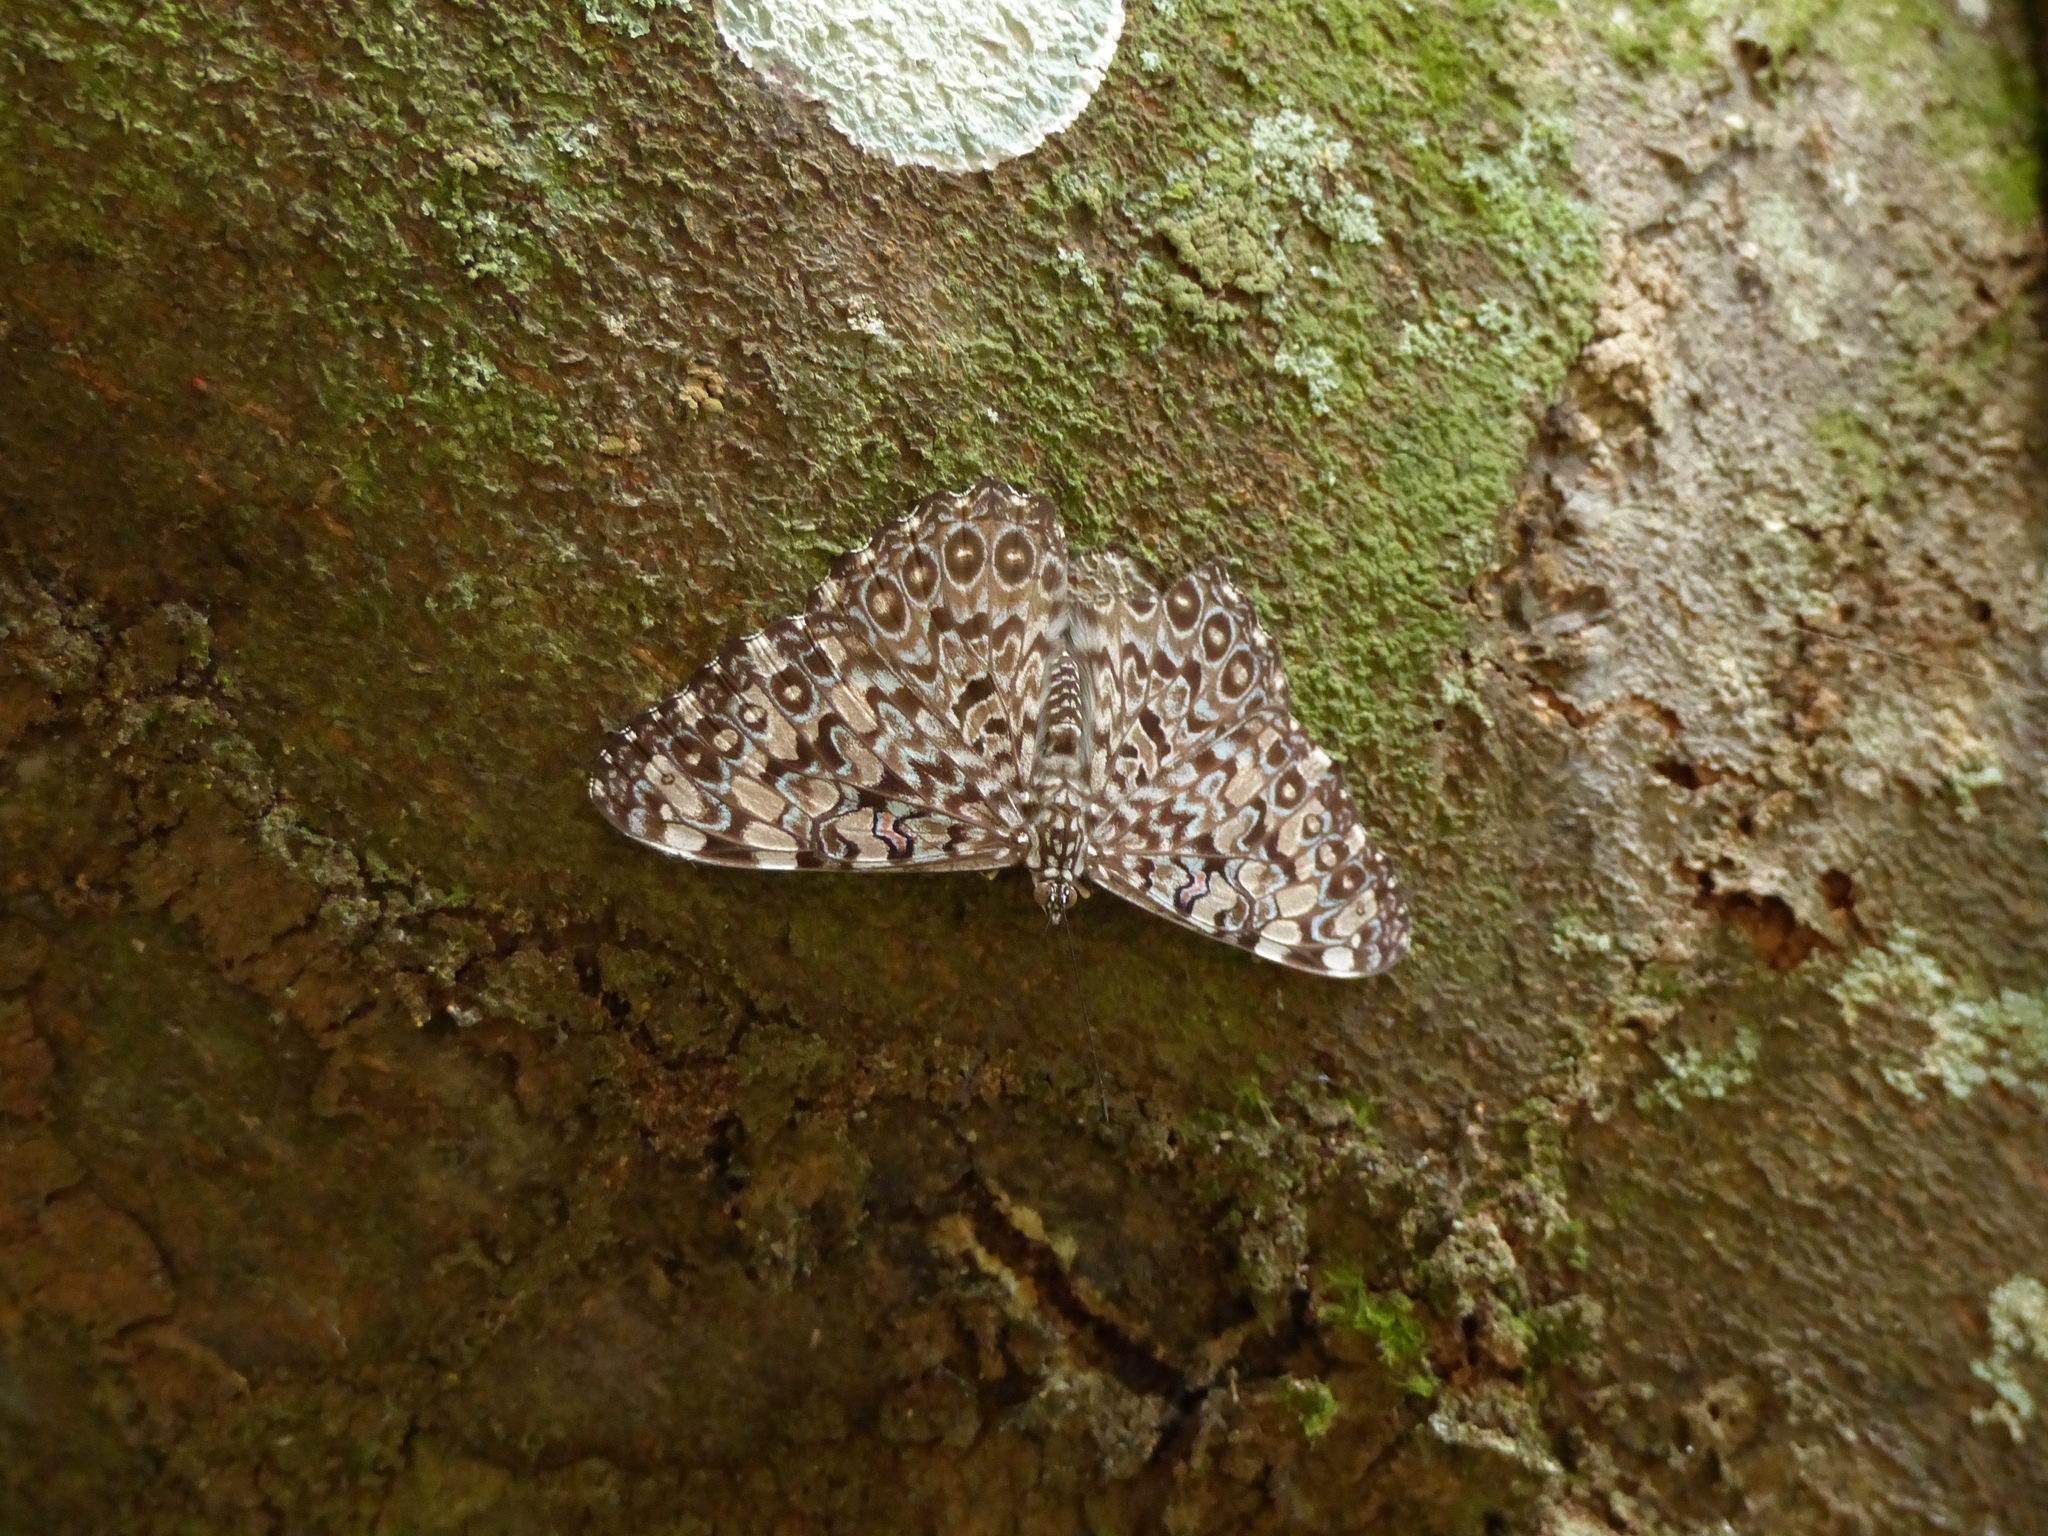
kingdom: Animalia
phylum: Arthropoda
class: Insecta
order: Lepidoptera
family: Nymphalidae
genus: Hamadryas
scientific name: Hamadryas feronia
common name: Variable cracker
